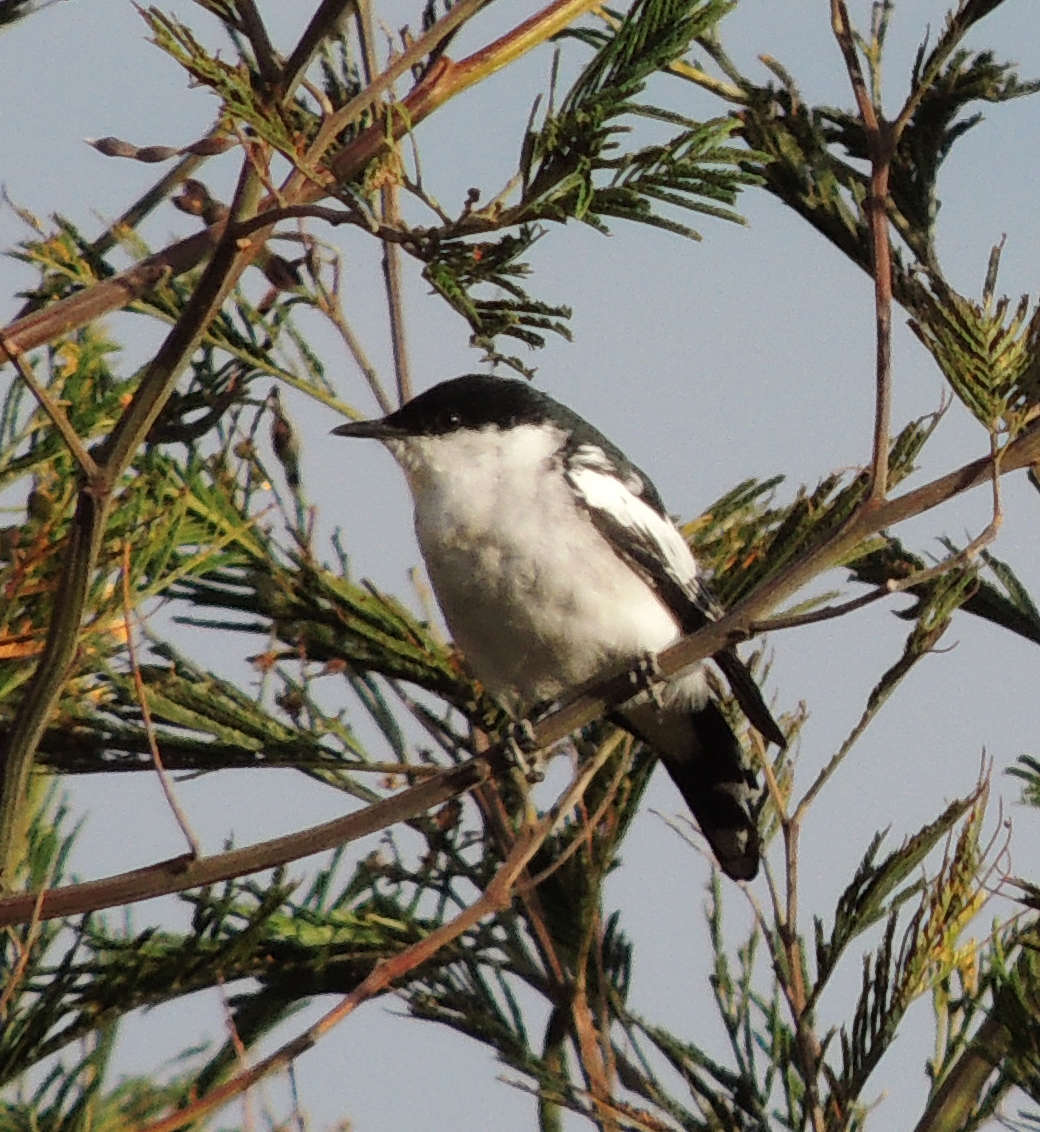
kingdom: Animalia
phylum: Chordata
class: Aves
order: Passeriformes
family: Campephagidae
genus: Lalage
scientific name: Lalage tricolor
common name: White-winged triller
